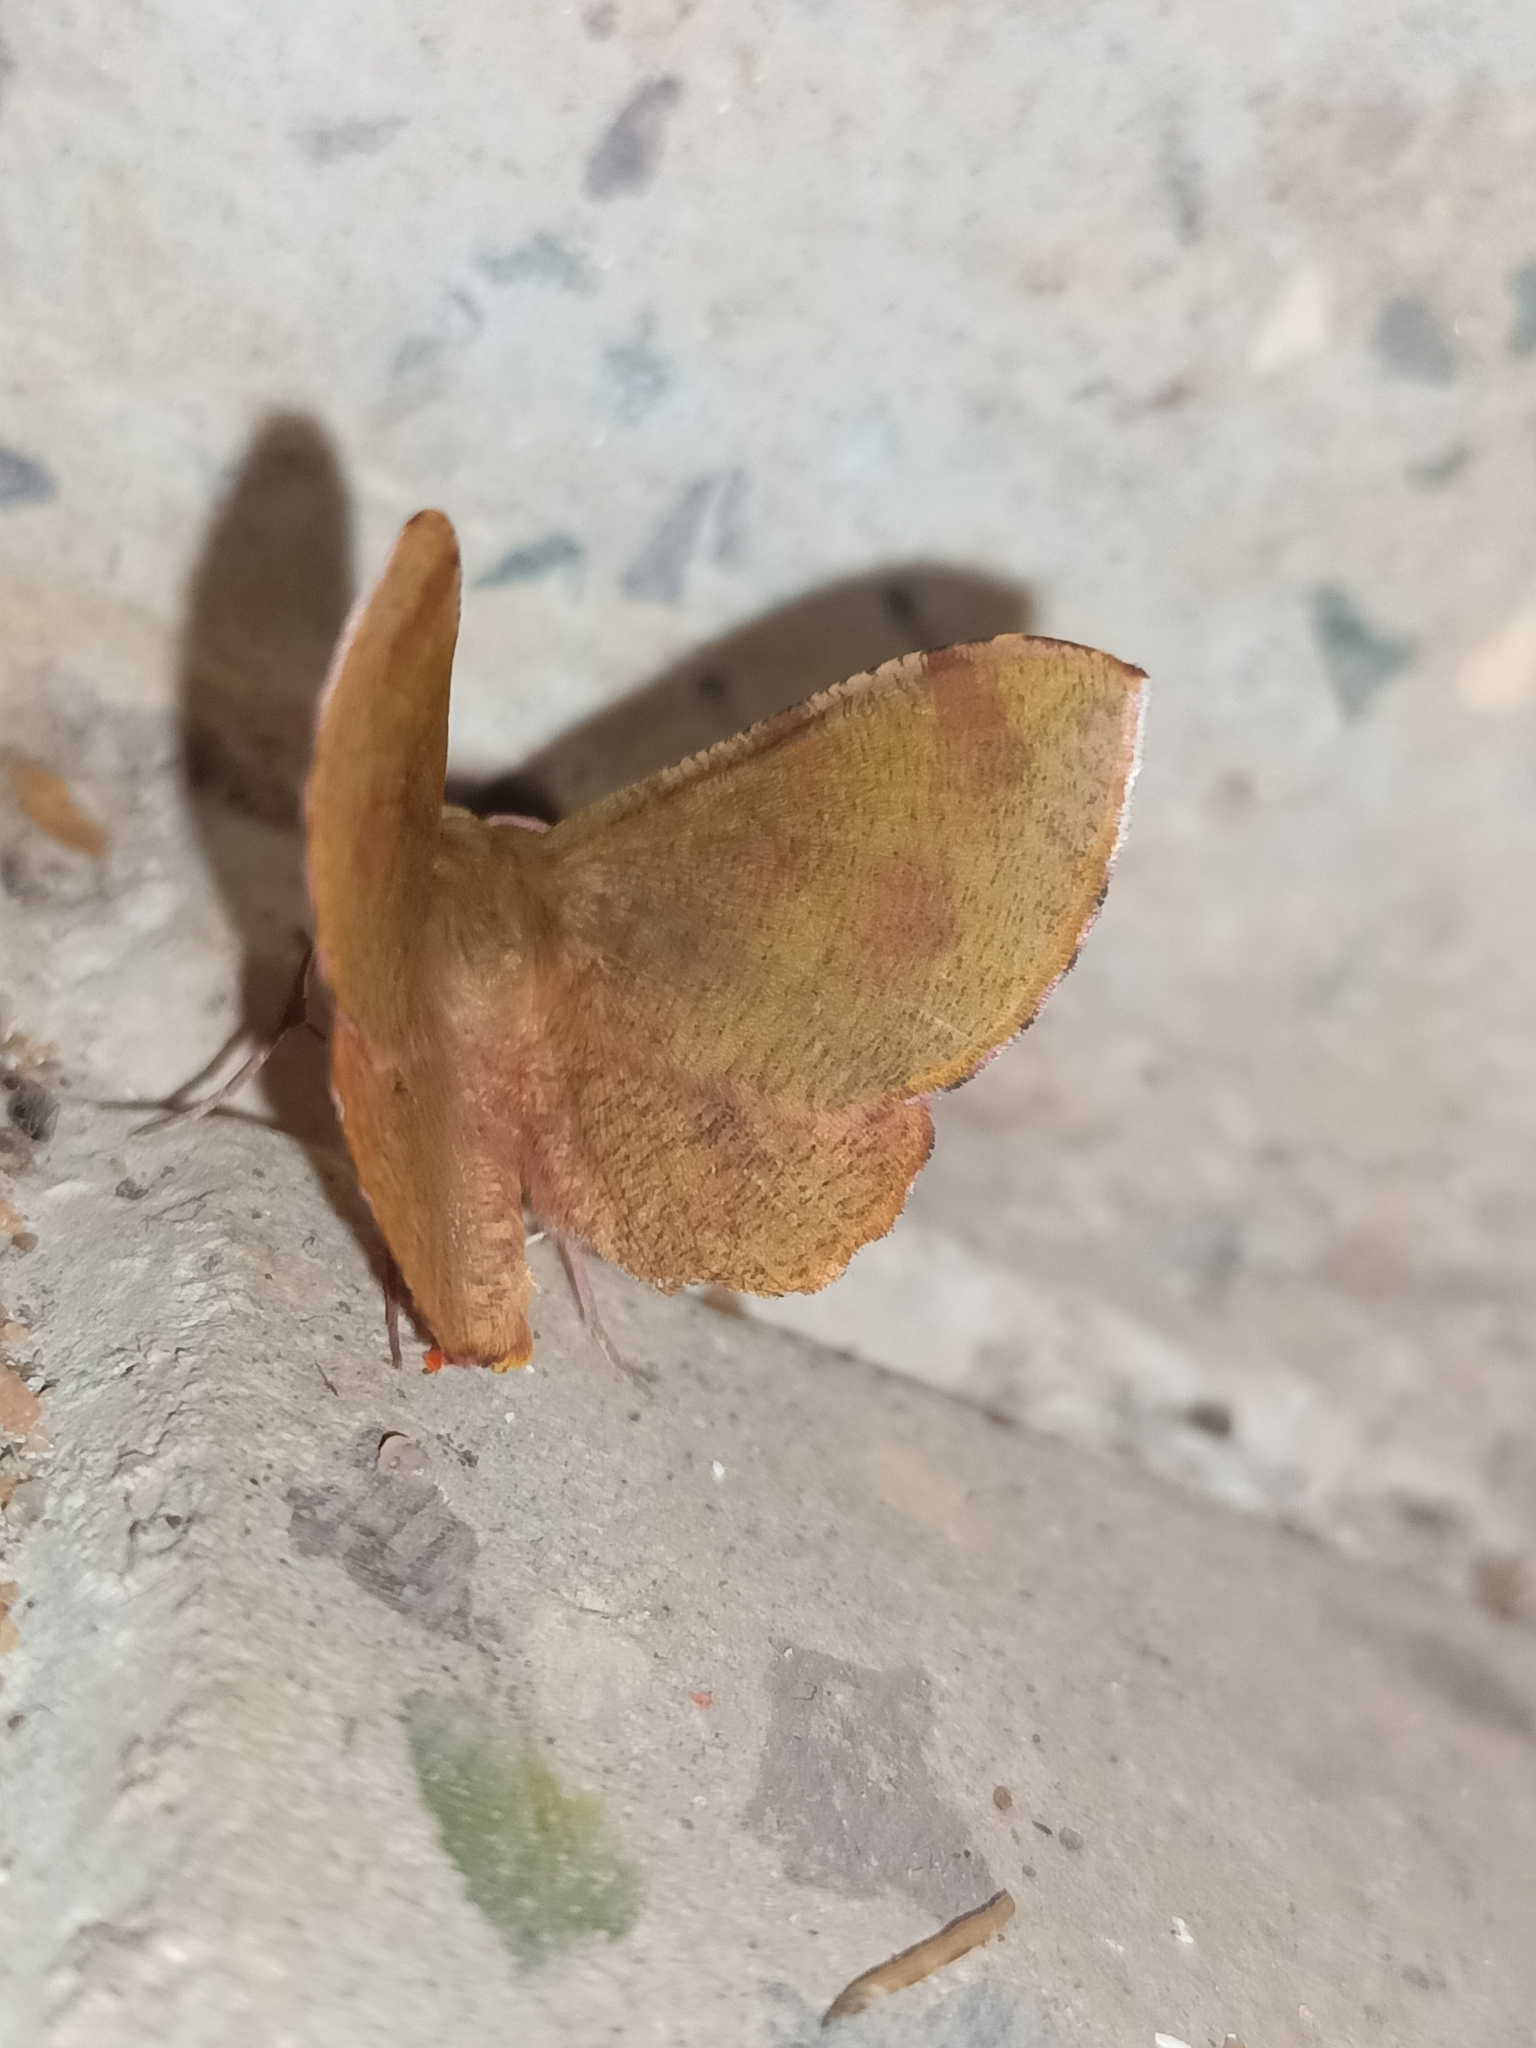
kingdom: Animalia
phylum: Arthropoda
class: Insecta
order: Lepidoptera
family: Geometridae
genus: Hyperythra
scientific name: Hyperythra lutea
